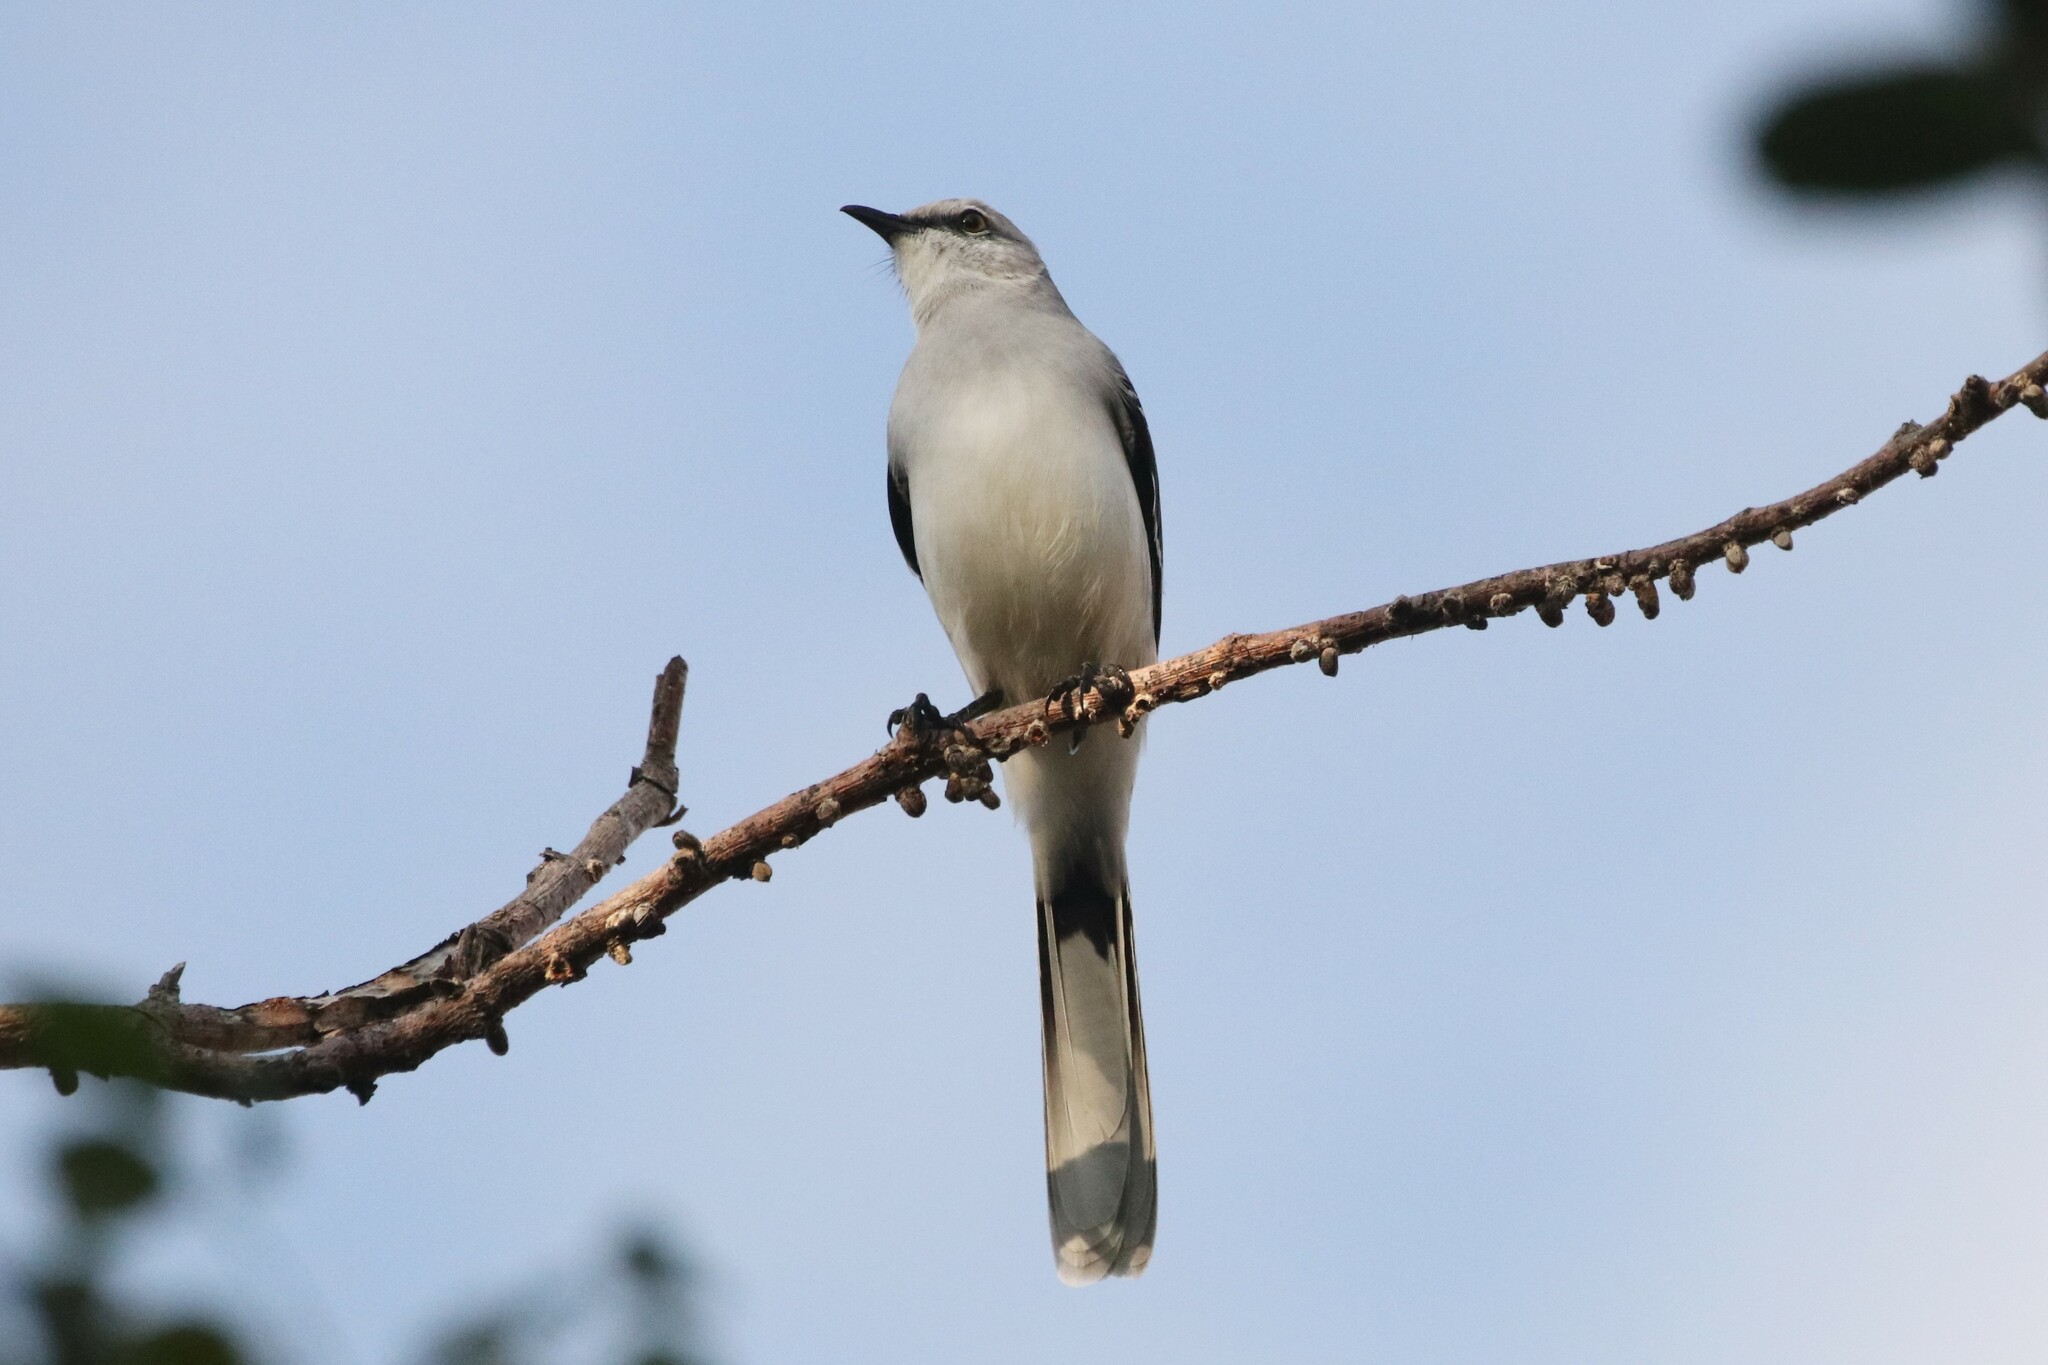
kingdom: Animalia
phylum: Chordata
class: Aves
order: Passeriformes
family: Mimidae
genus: Mimus
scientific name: Mimus gilvus
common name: Tropical mockingbird
